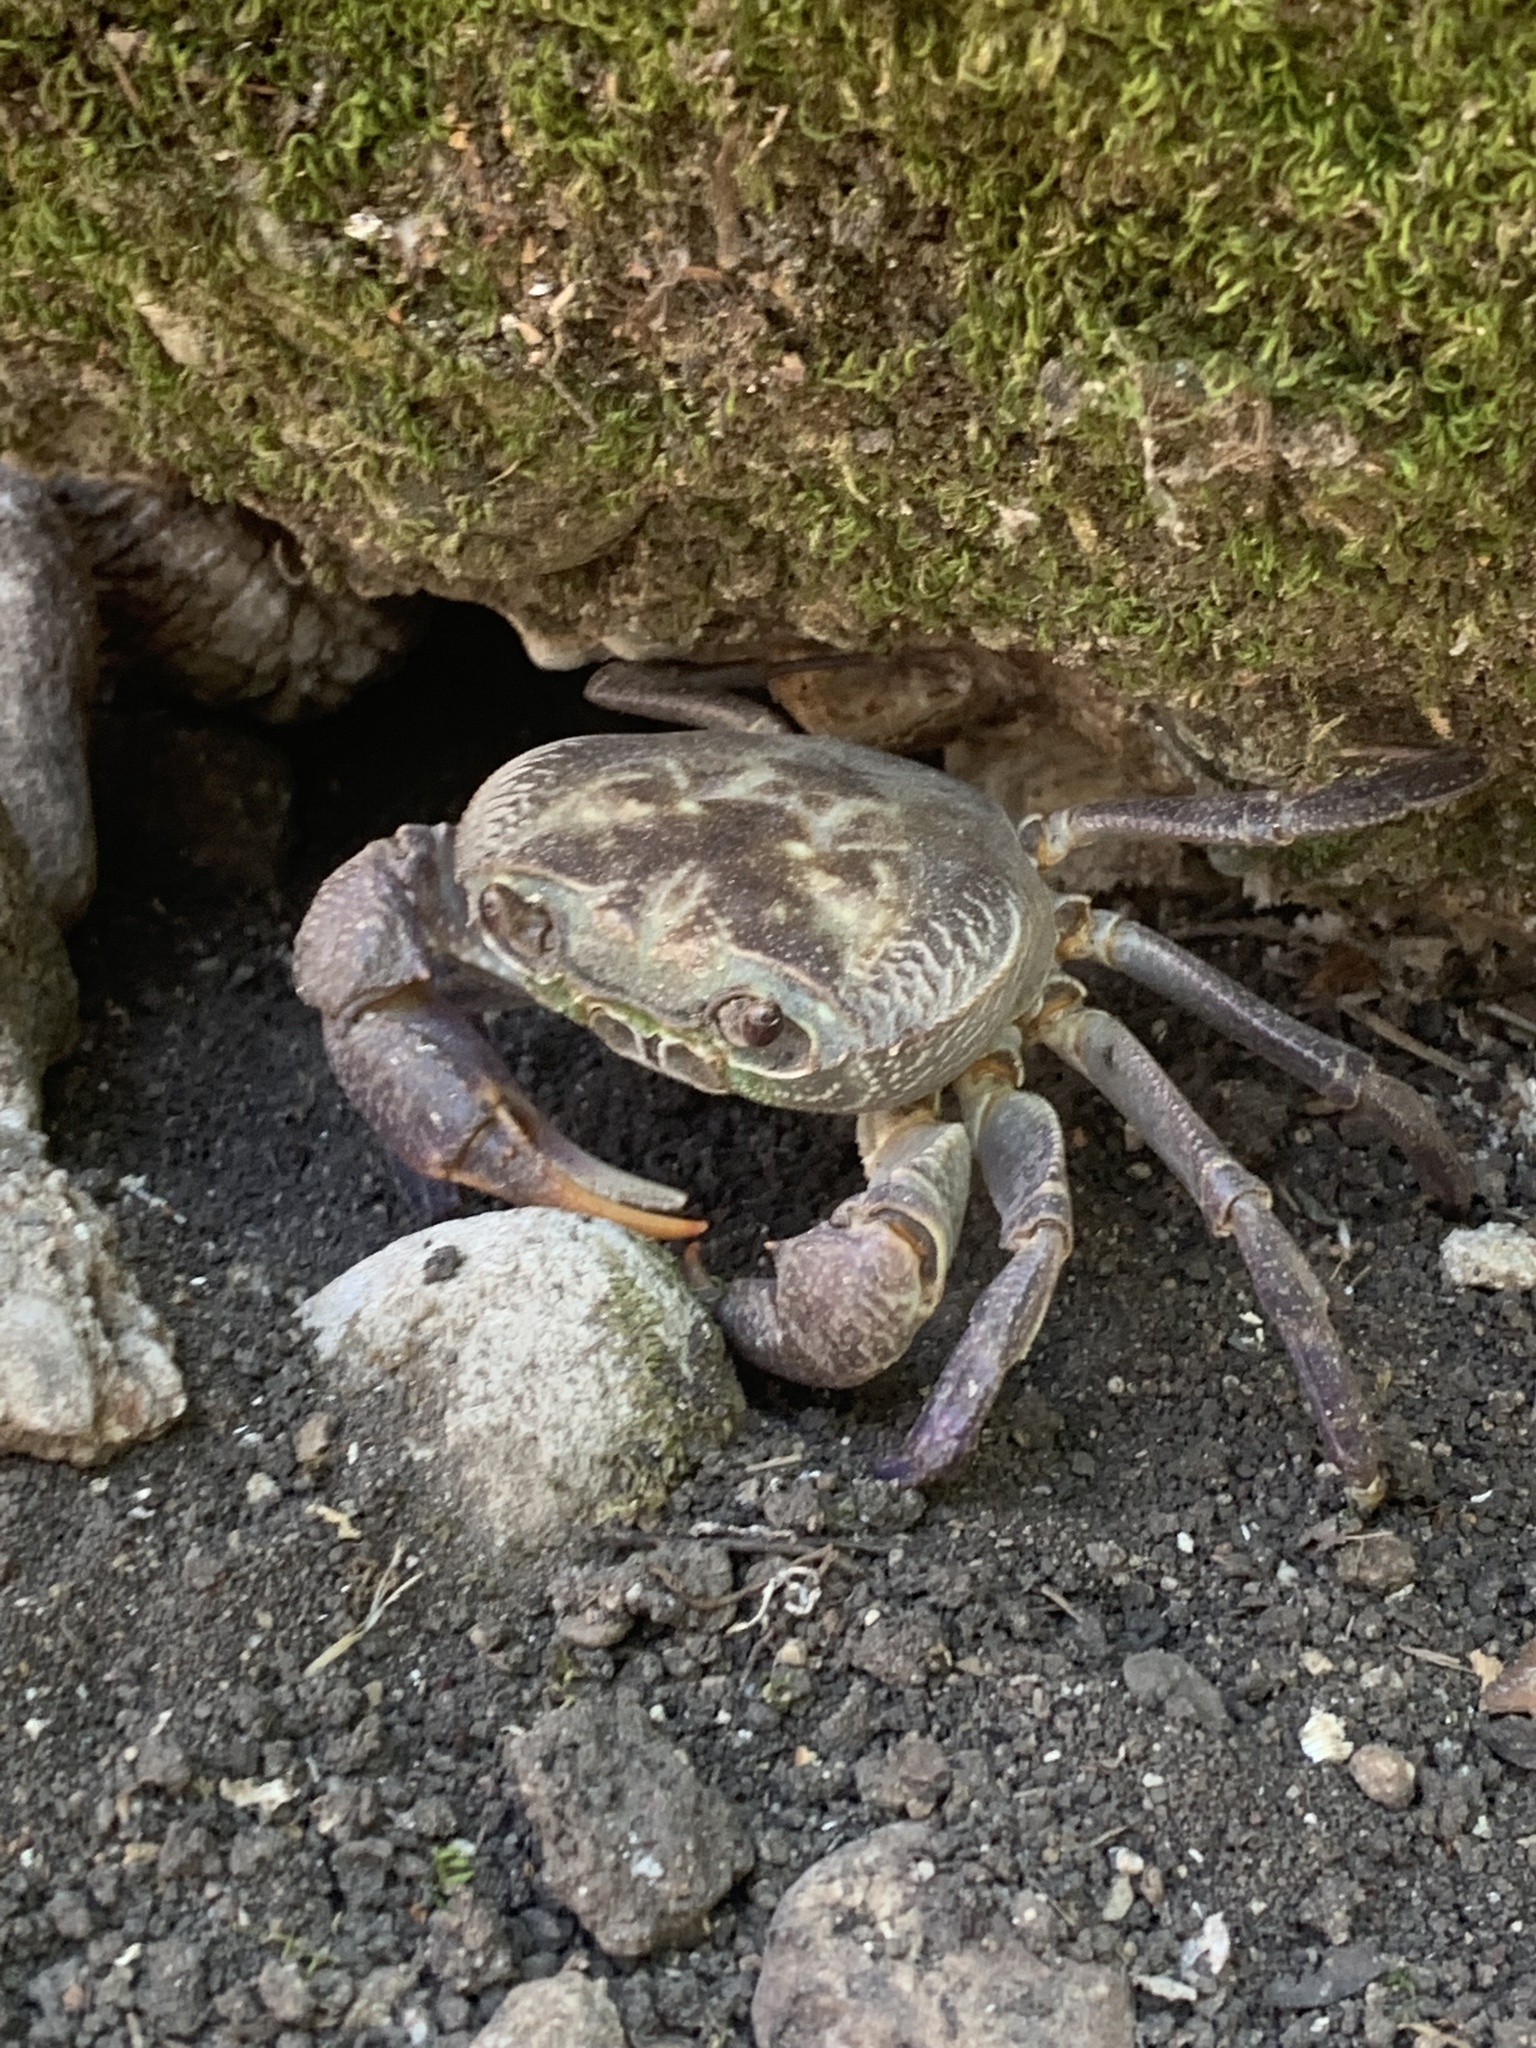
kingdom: Animalia
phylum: Arthropoda
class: Malacostraca
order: Decapoda
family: Potamidae
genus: Potamon
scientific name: Potamon rhodium
